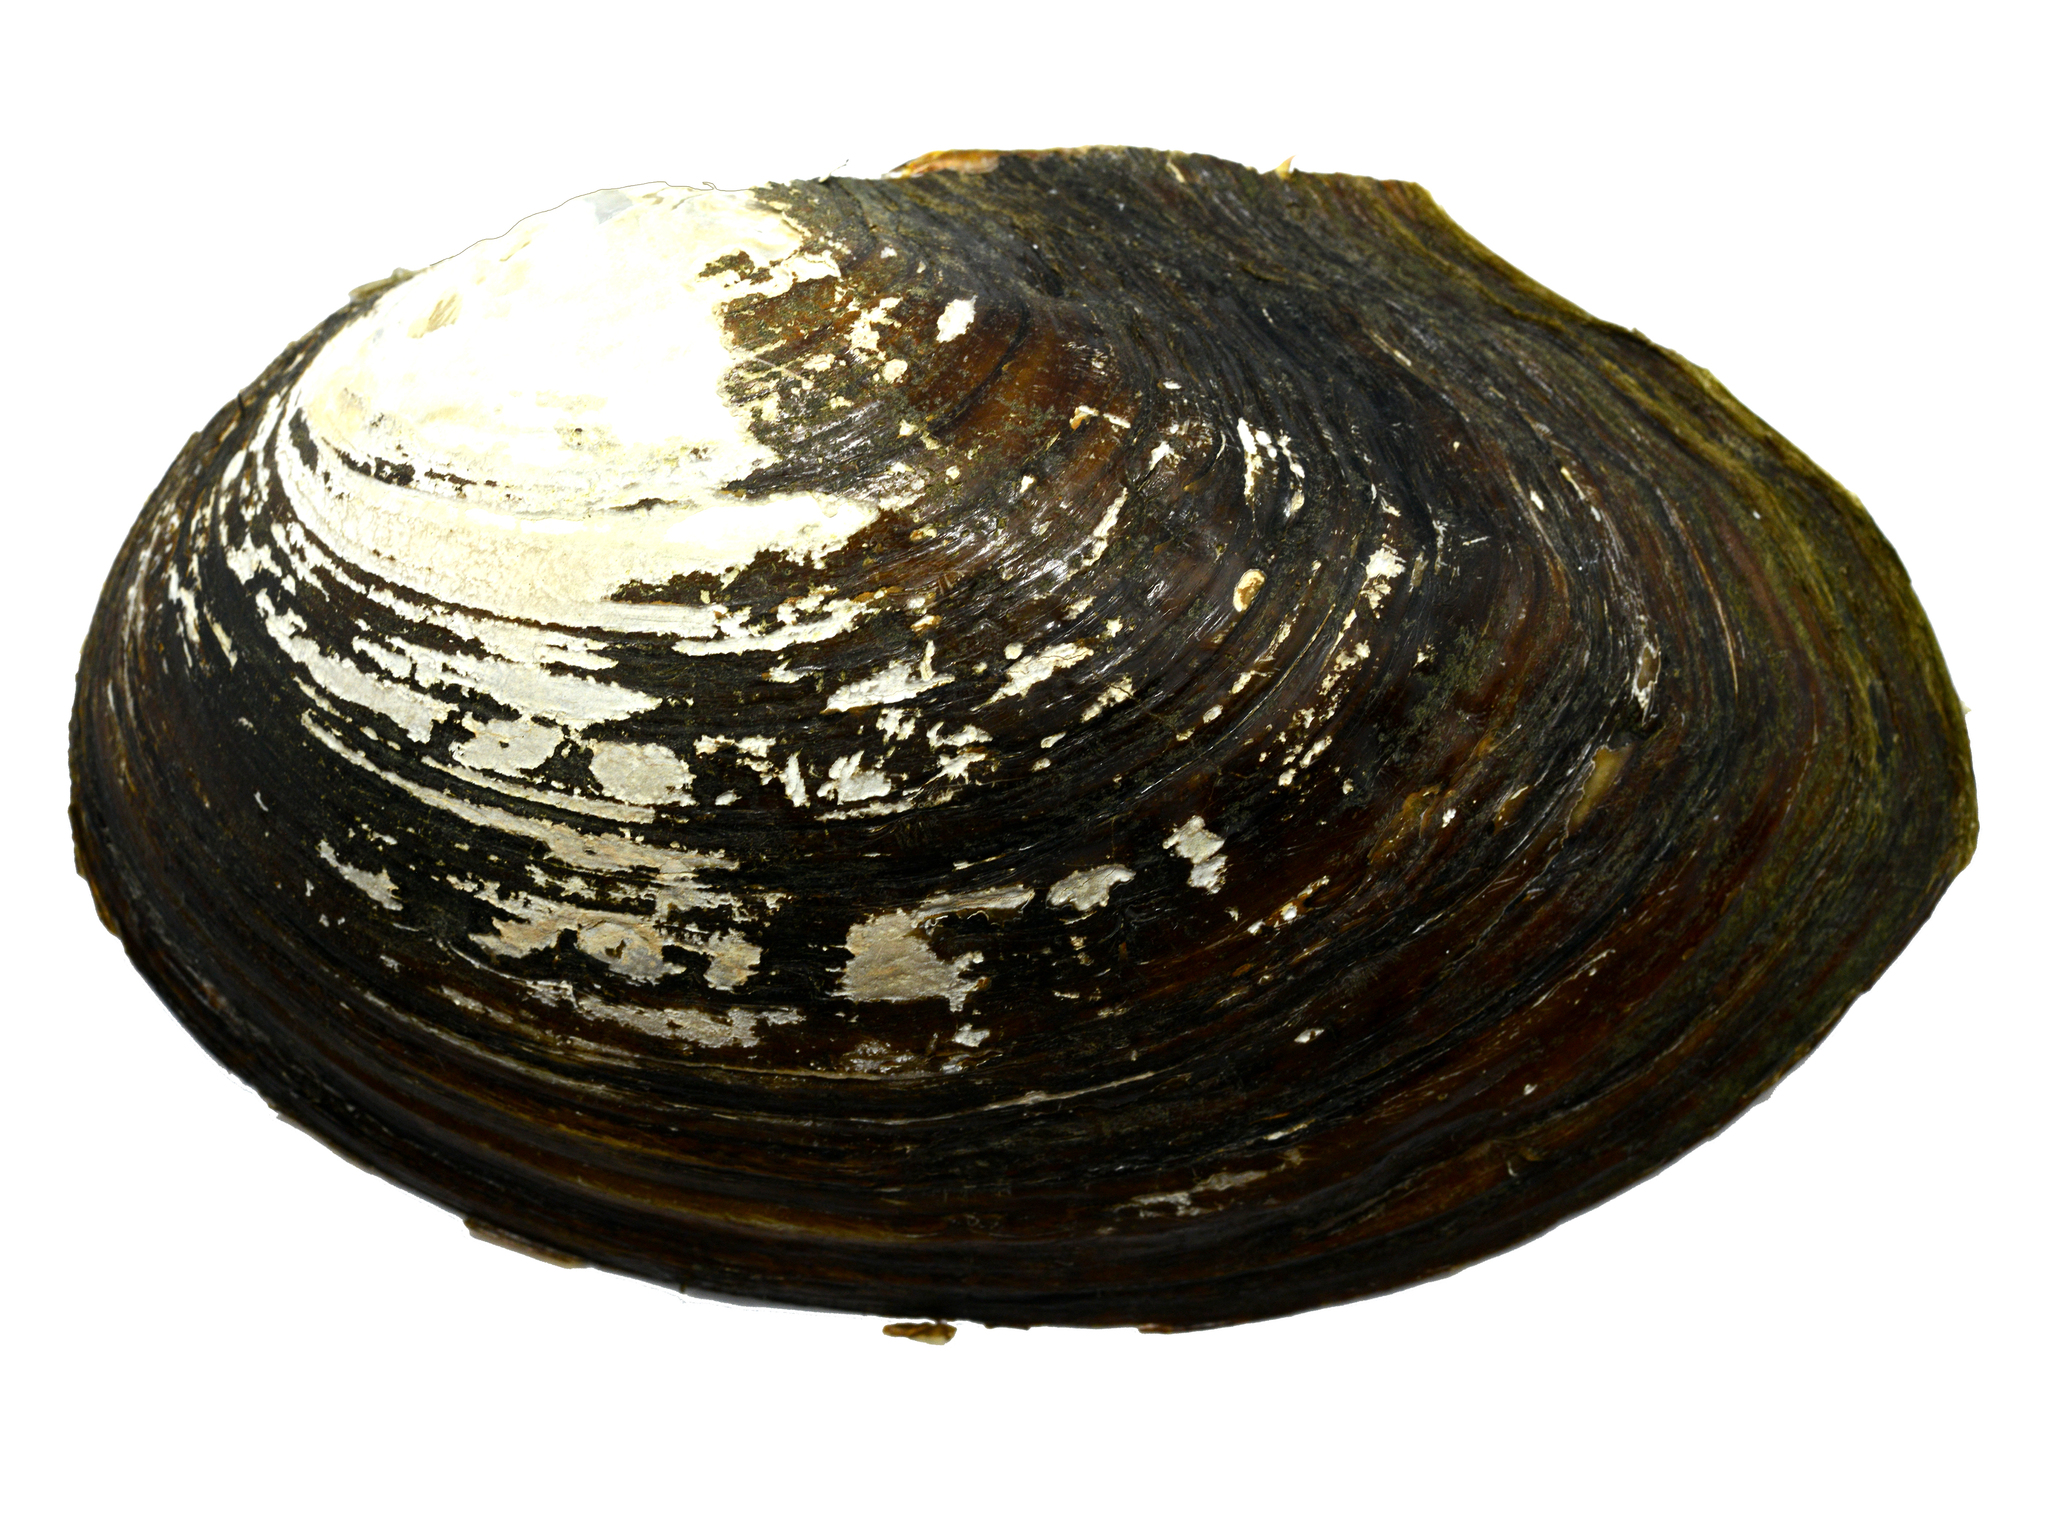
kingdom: Animalia
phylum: Mollusca
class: Bivalvia
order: Unionida
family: Unionidae
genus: Sinanodonta
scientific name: Sinanodonta lauta
